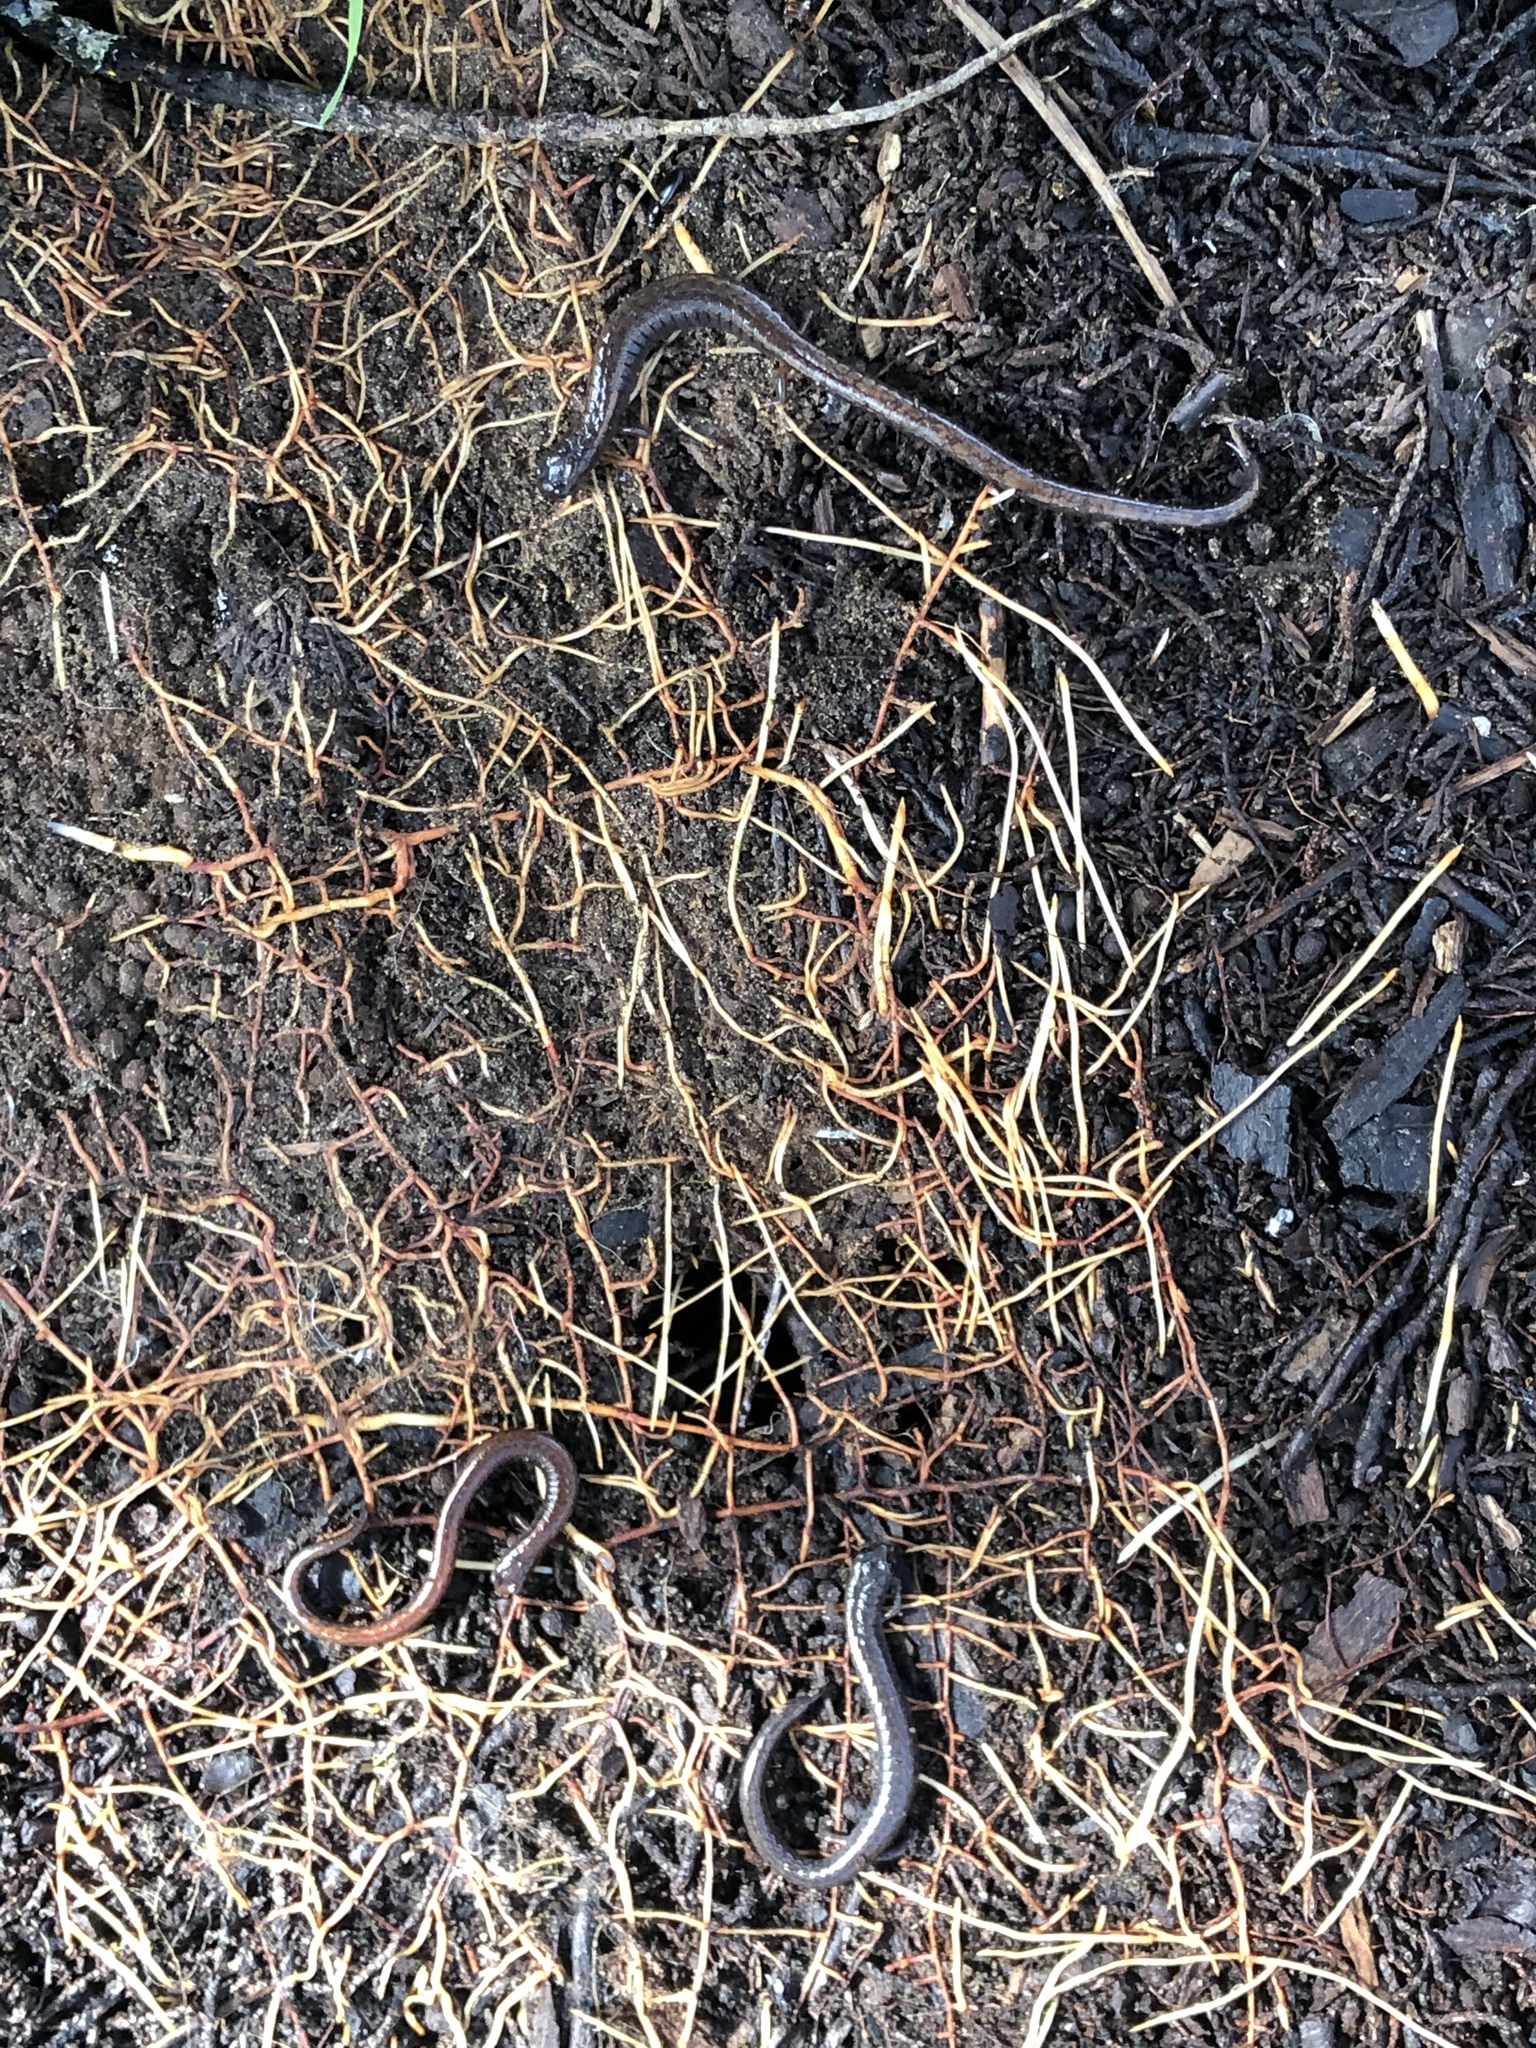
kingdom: Animalia
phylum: Chordata
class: Amphibia
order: Caudata
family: Plethodontidae
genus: Batrachoseps
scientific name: Batrachoseps attenuatus
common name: California slender salamander
